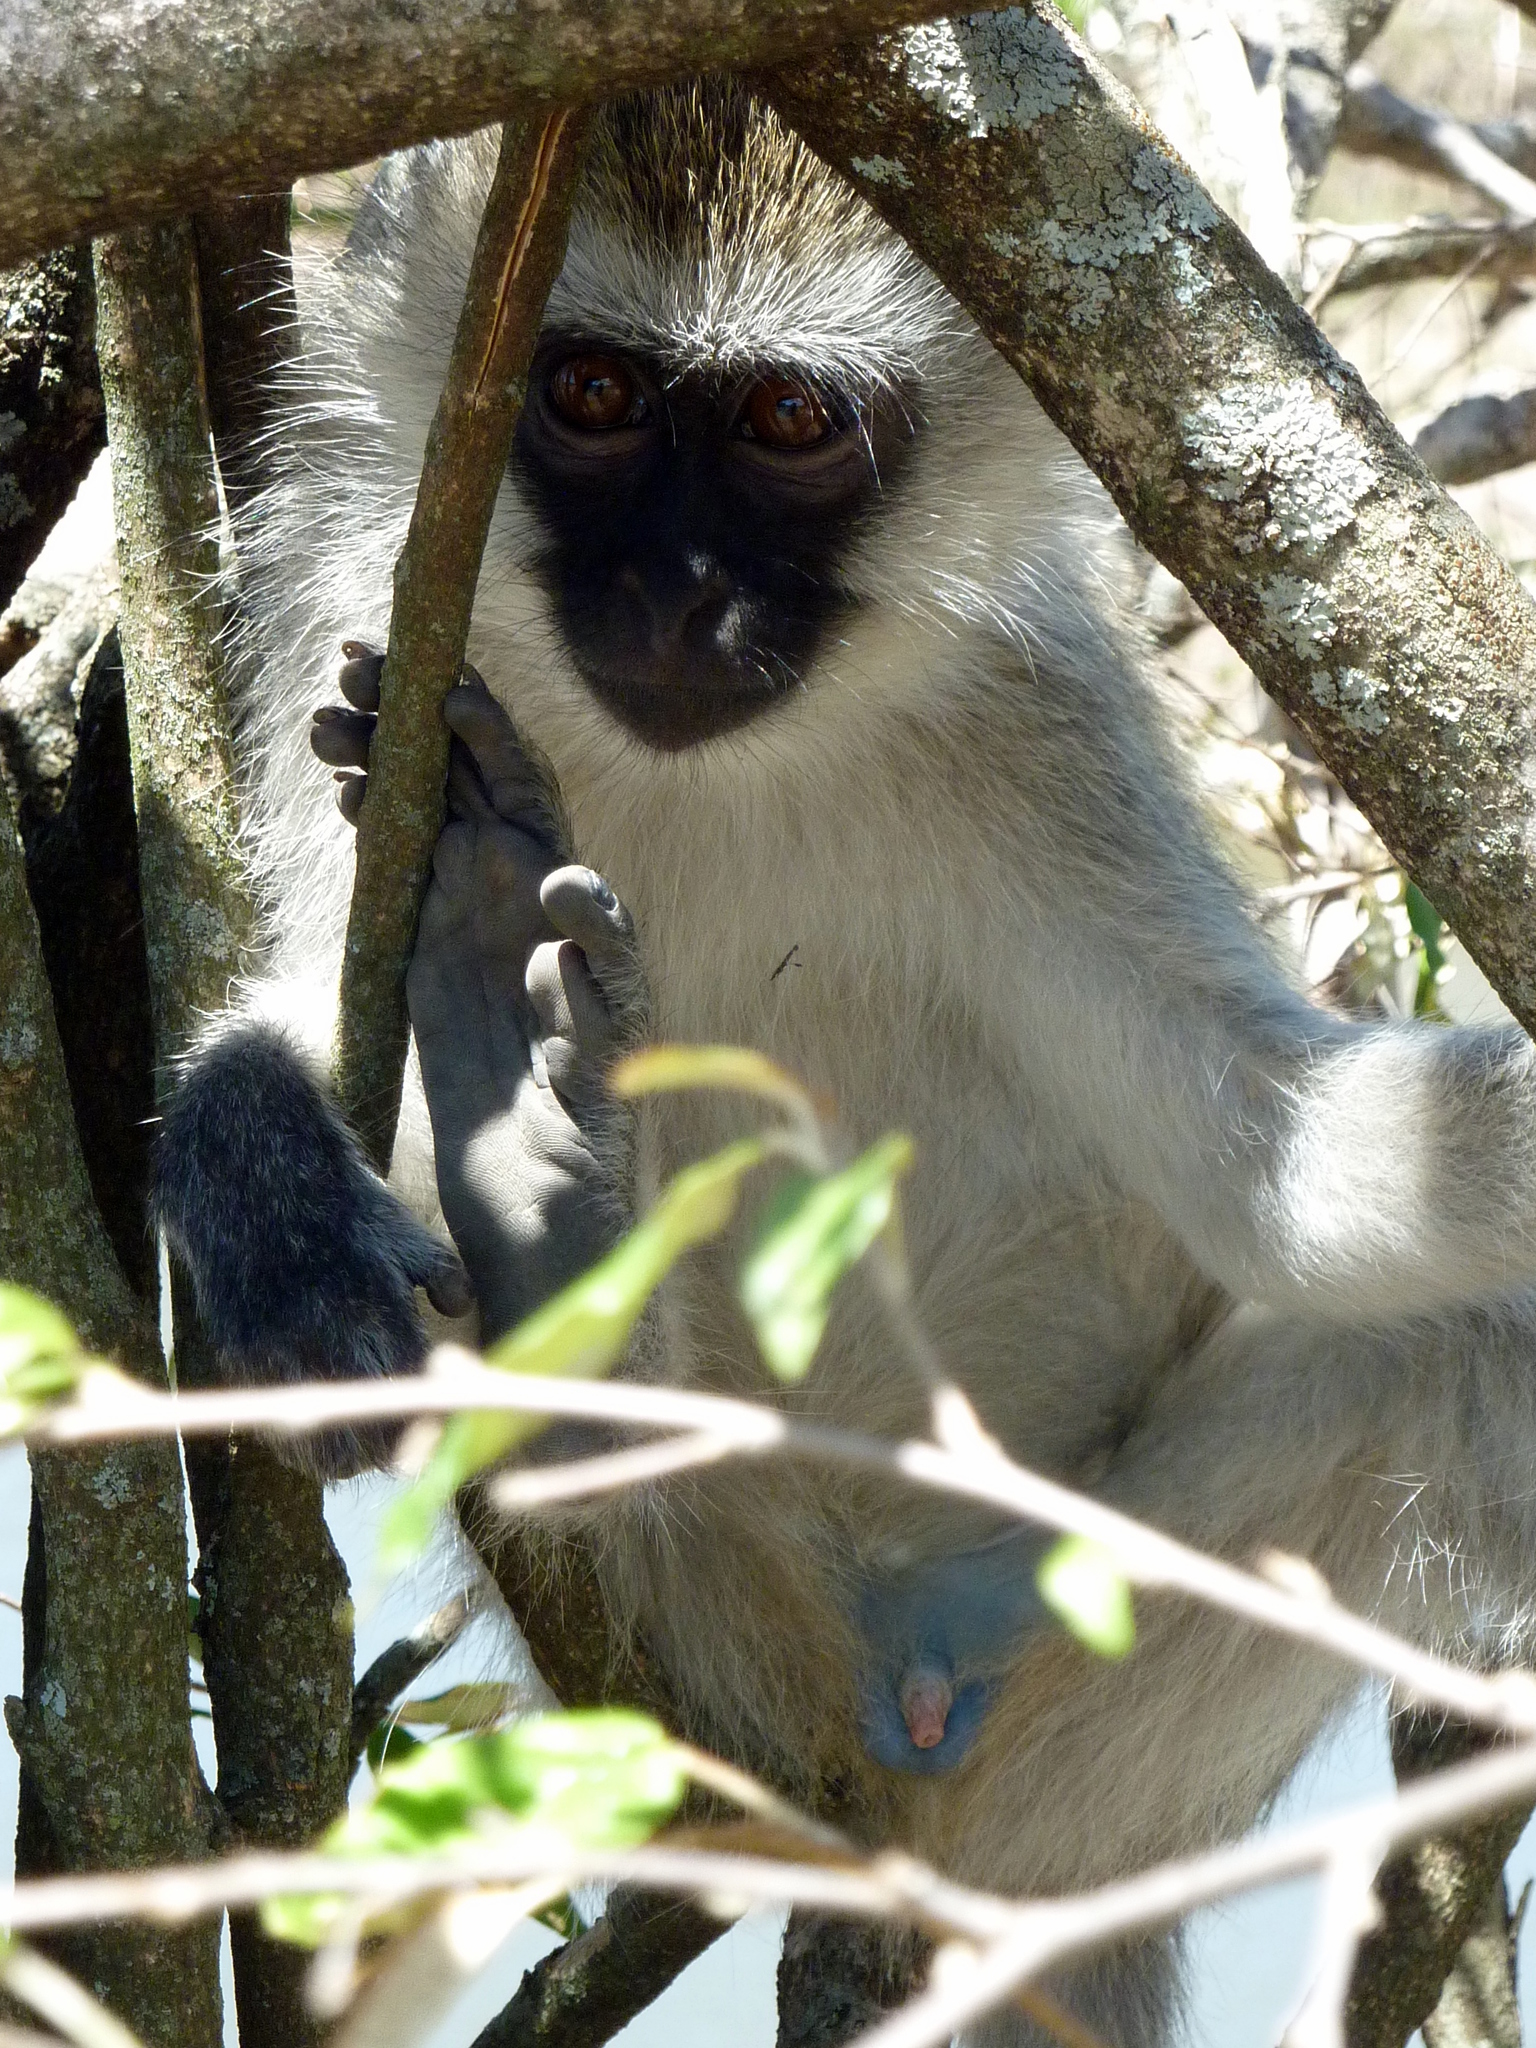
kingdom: Animalia
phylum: Chordata
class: Mammalia
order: Primates
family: Cercopithecidae
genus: Chlorocebus
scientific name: Chlorocebus pygerythrus
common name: Vervet monkey
